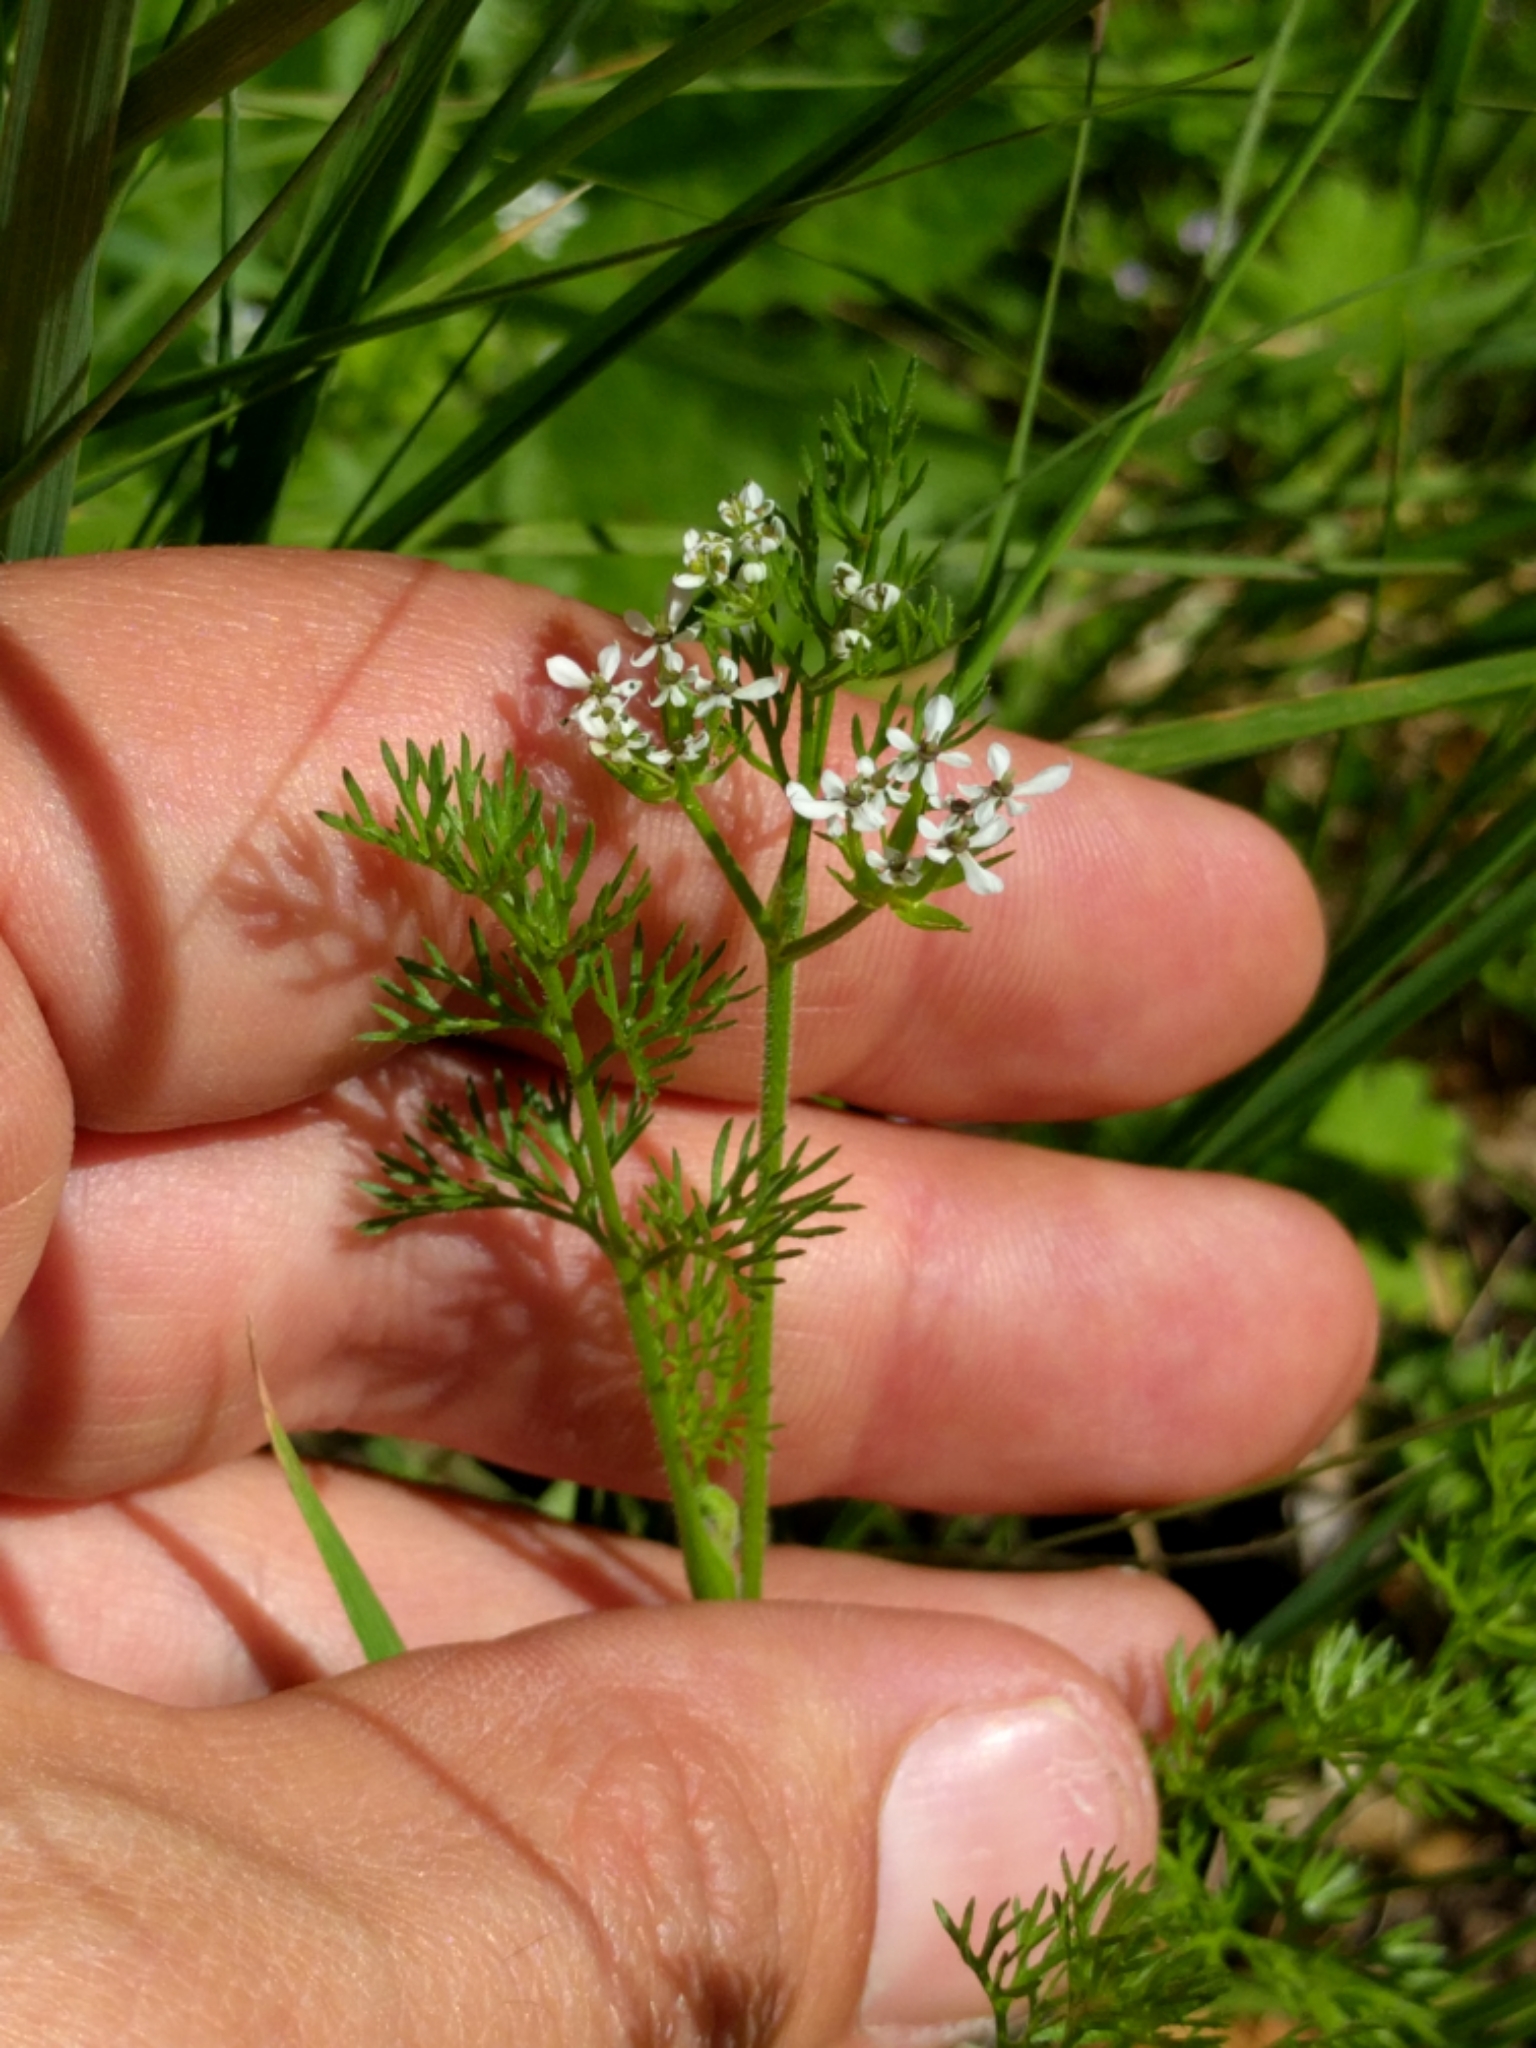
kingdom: Plantae
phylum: Tracheophyta
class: Magnoliopsida
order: Apiales
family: Apiaceae
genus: Scandix
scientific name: Scandix pecten-veneris
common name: Shepherd's-needle
